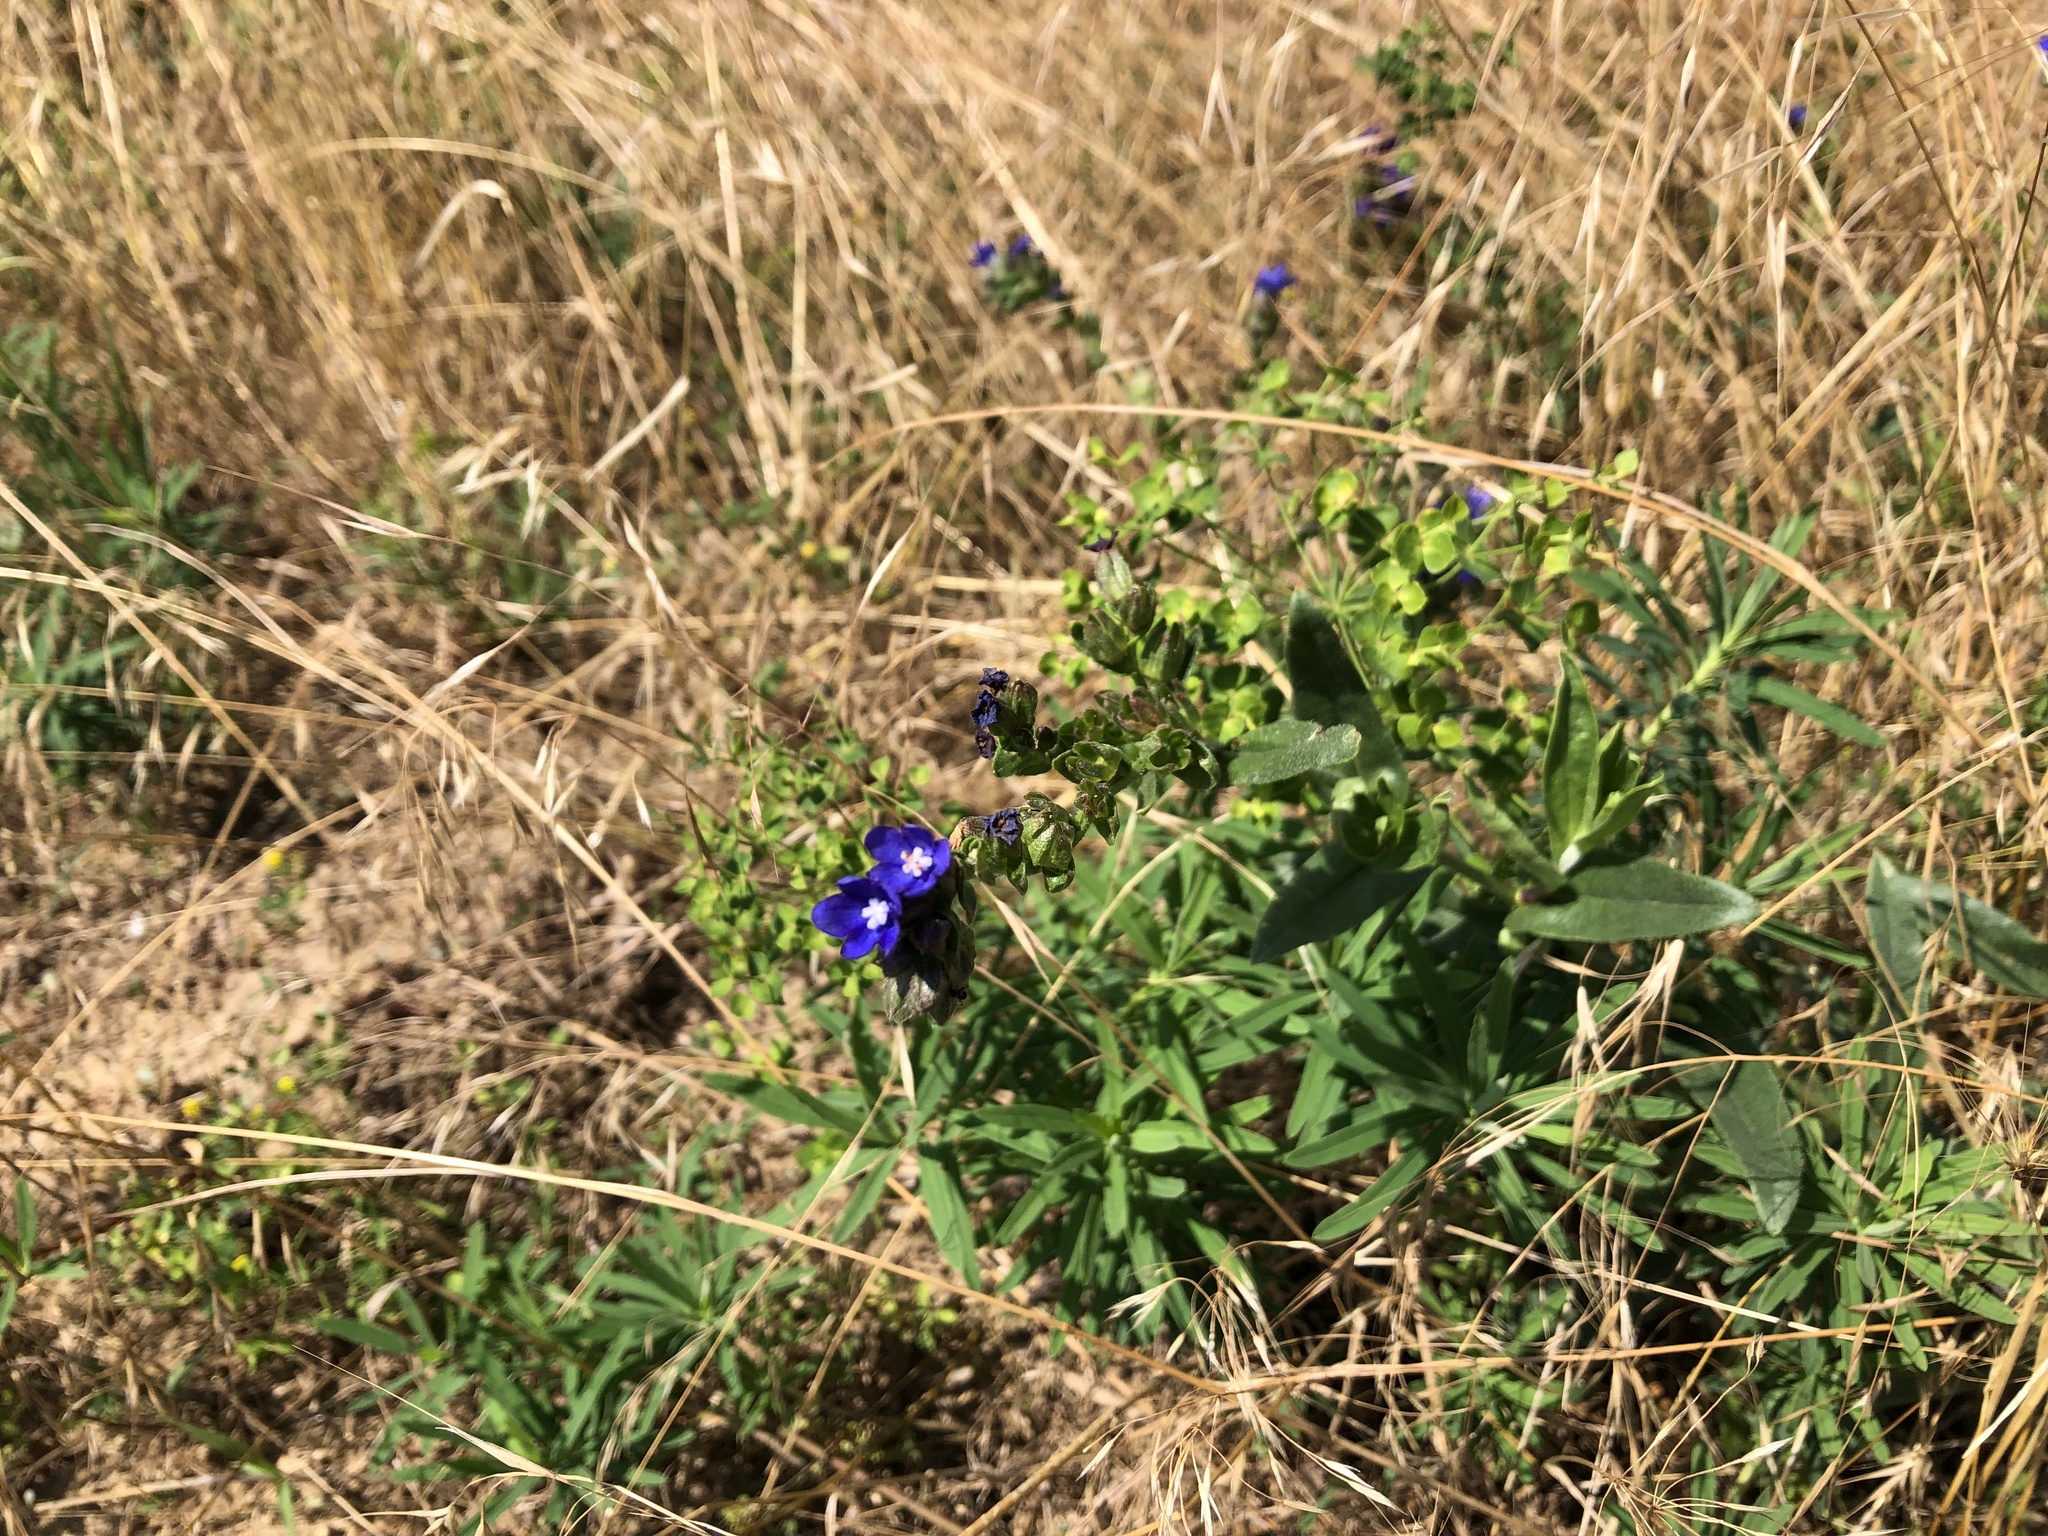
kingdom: Plantae
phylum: Tracheophyta
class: Magnoliopsida
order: Boraginales
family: Boraginaceae
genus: Anchusa
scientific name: Anchusa officinalis
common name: Alkanet
